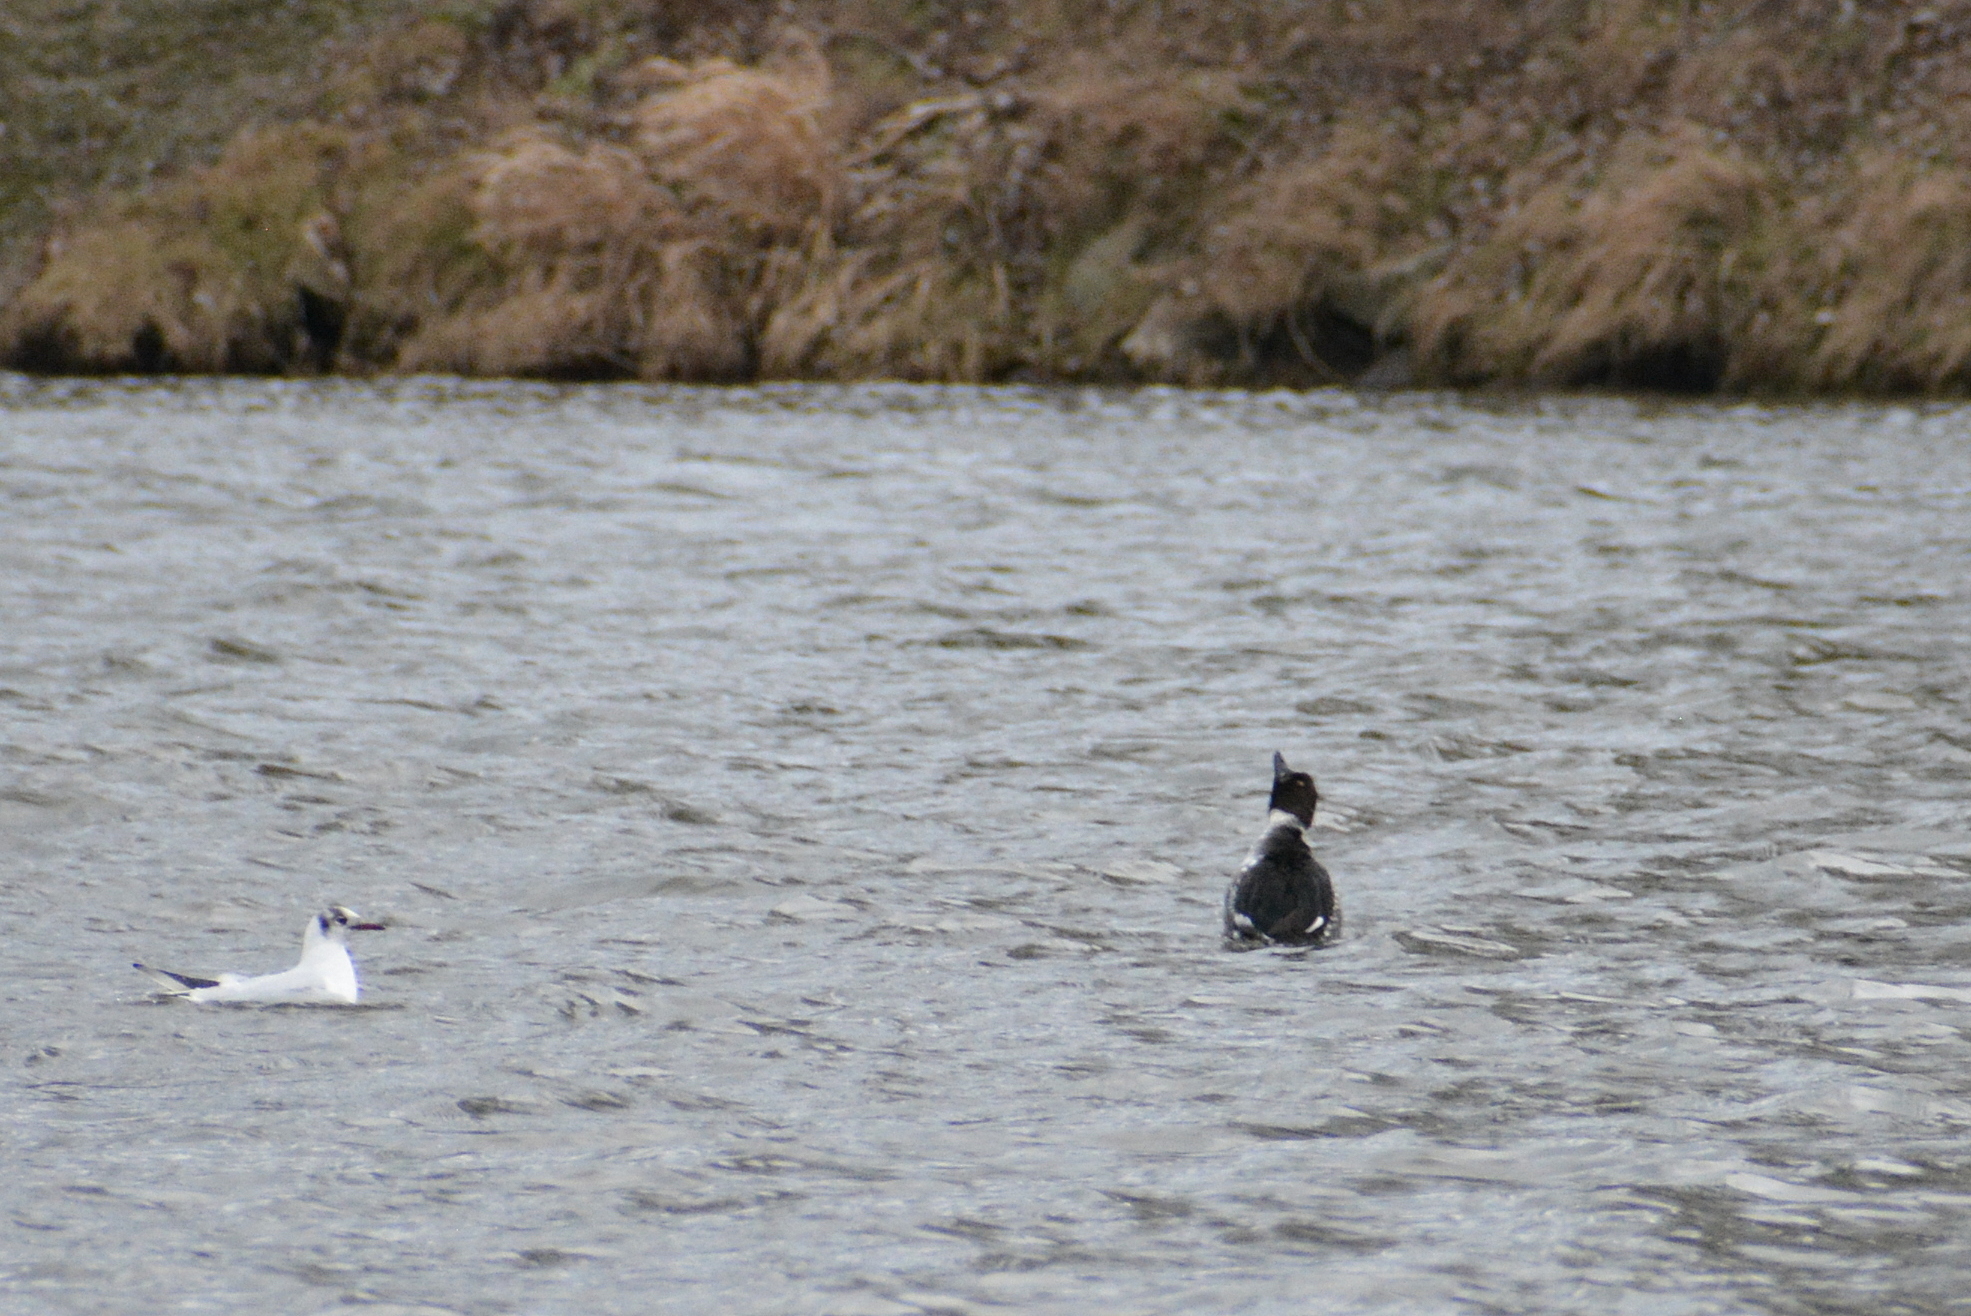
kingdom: Animalia
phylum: Chordata
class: Aves
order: Anseriformes
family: Anatidae
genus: Bucephala
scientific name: Bucephala clangula
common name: Common goldeneye
